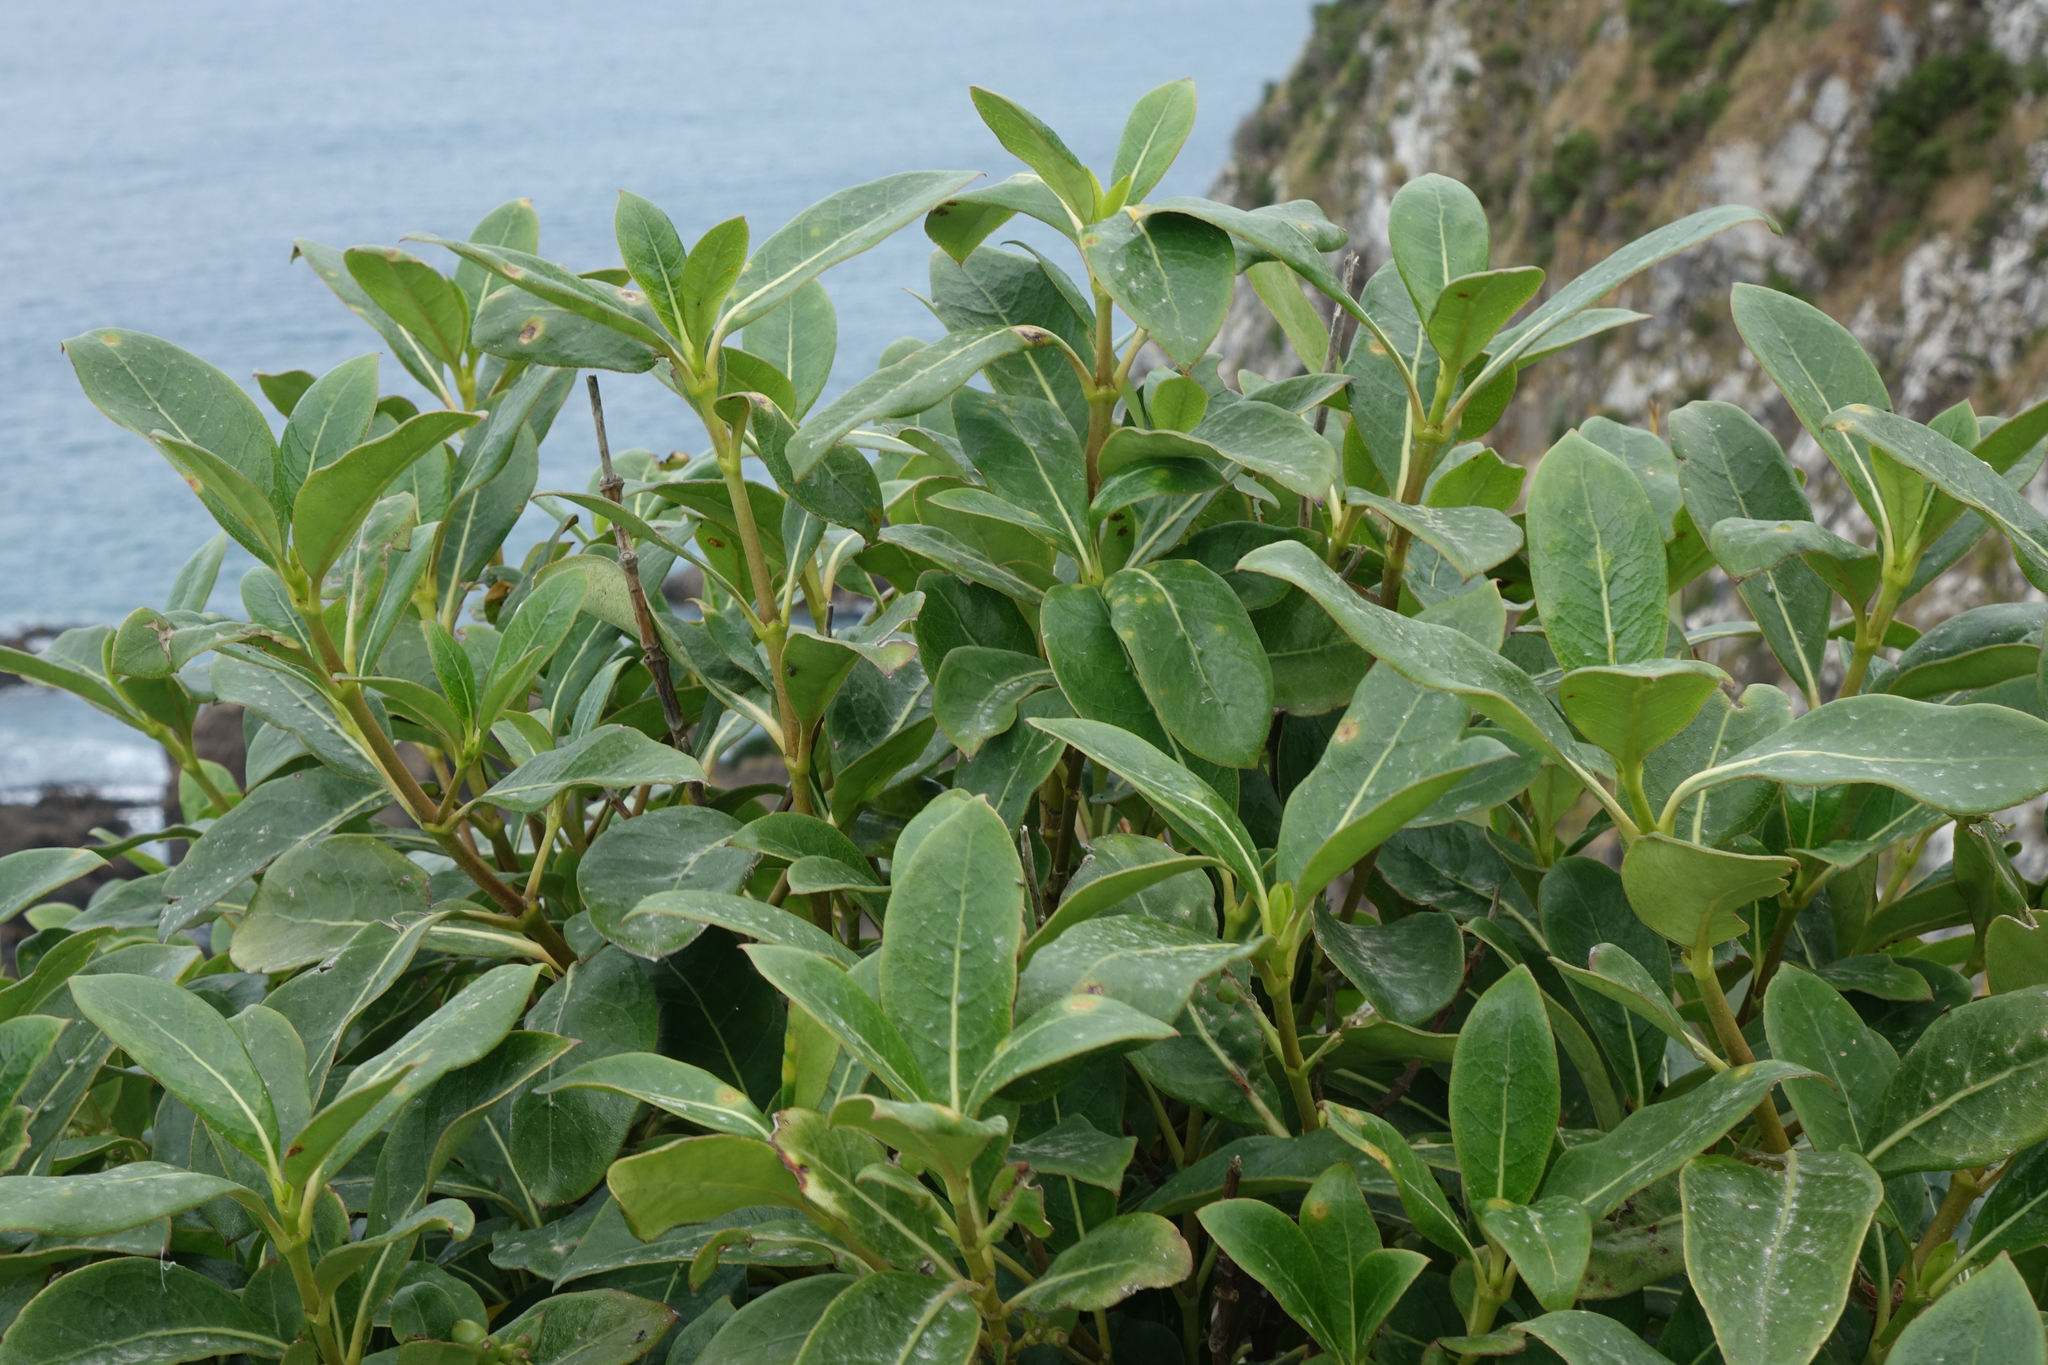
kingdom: Plantae
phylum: Tracheophyta
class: Magnoliopsida
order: Gentianales
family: Rubiaceae
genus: Coprosma
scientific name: Coprosma lucida
